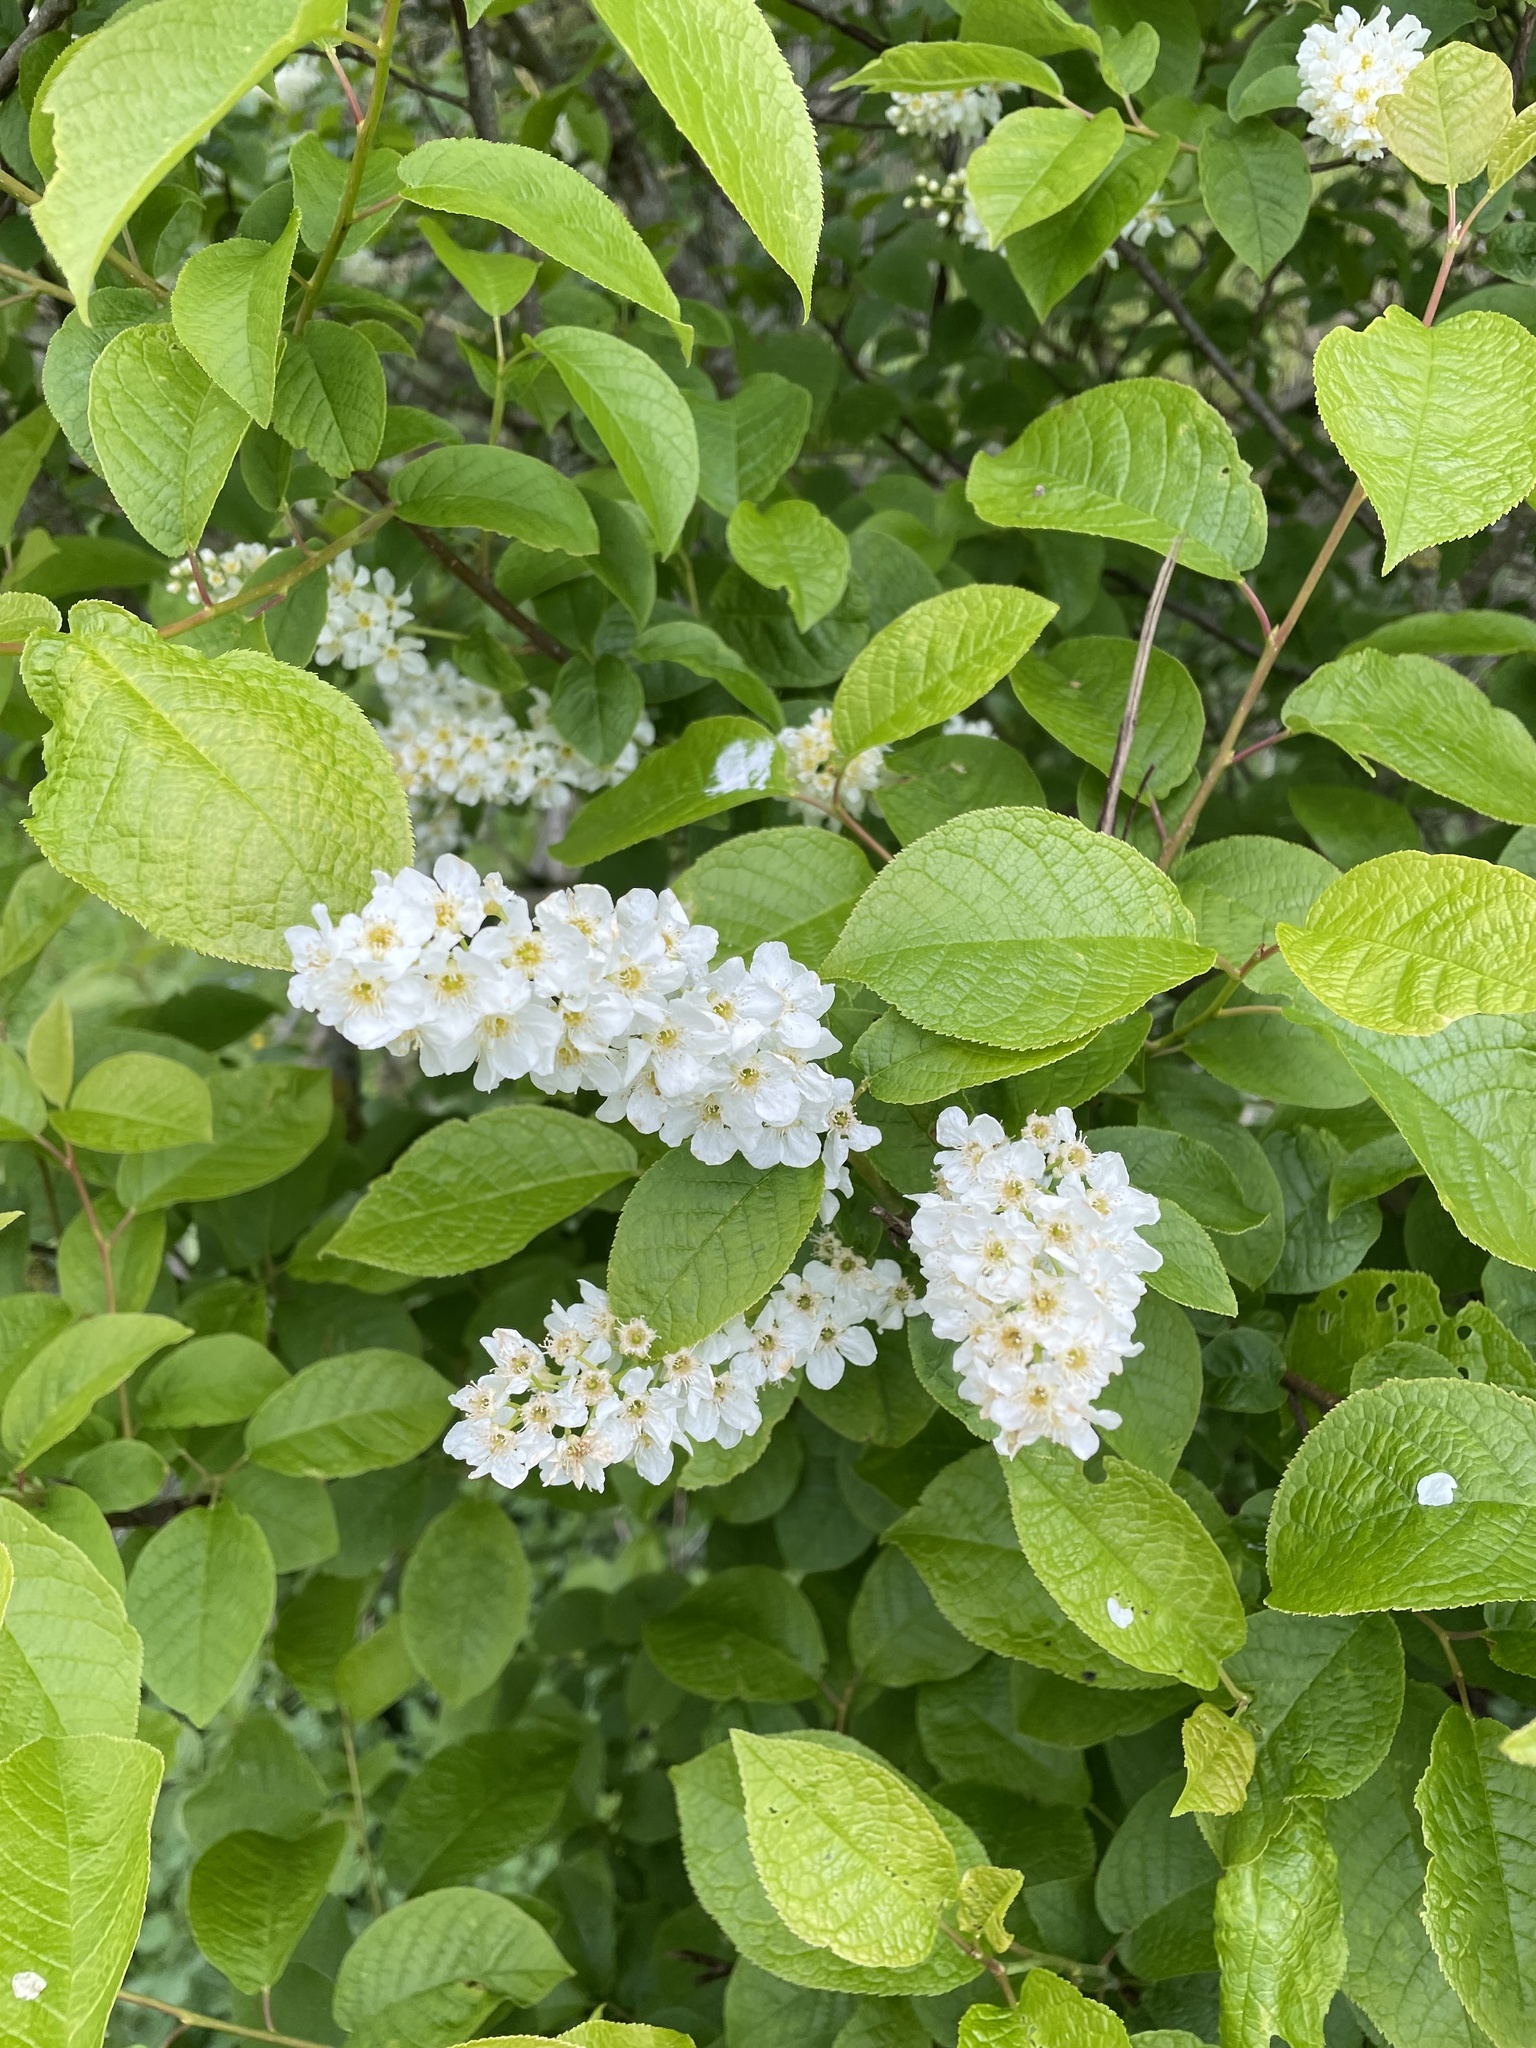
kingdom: Plantae
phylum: Tracheophyta
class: Magnoliopsida
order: Rosales
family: Rosaceae
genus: Prunus
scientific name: Prunus padus
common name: Bird cherry
